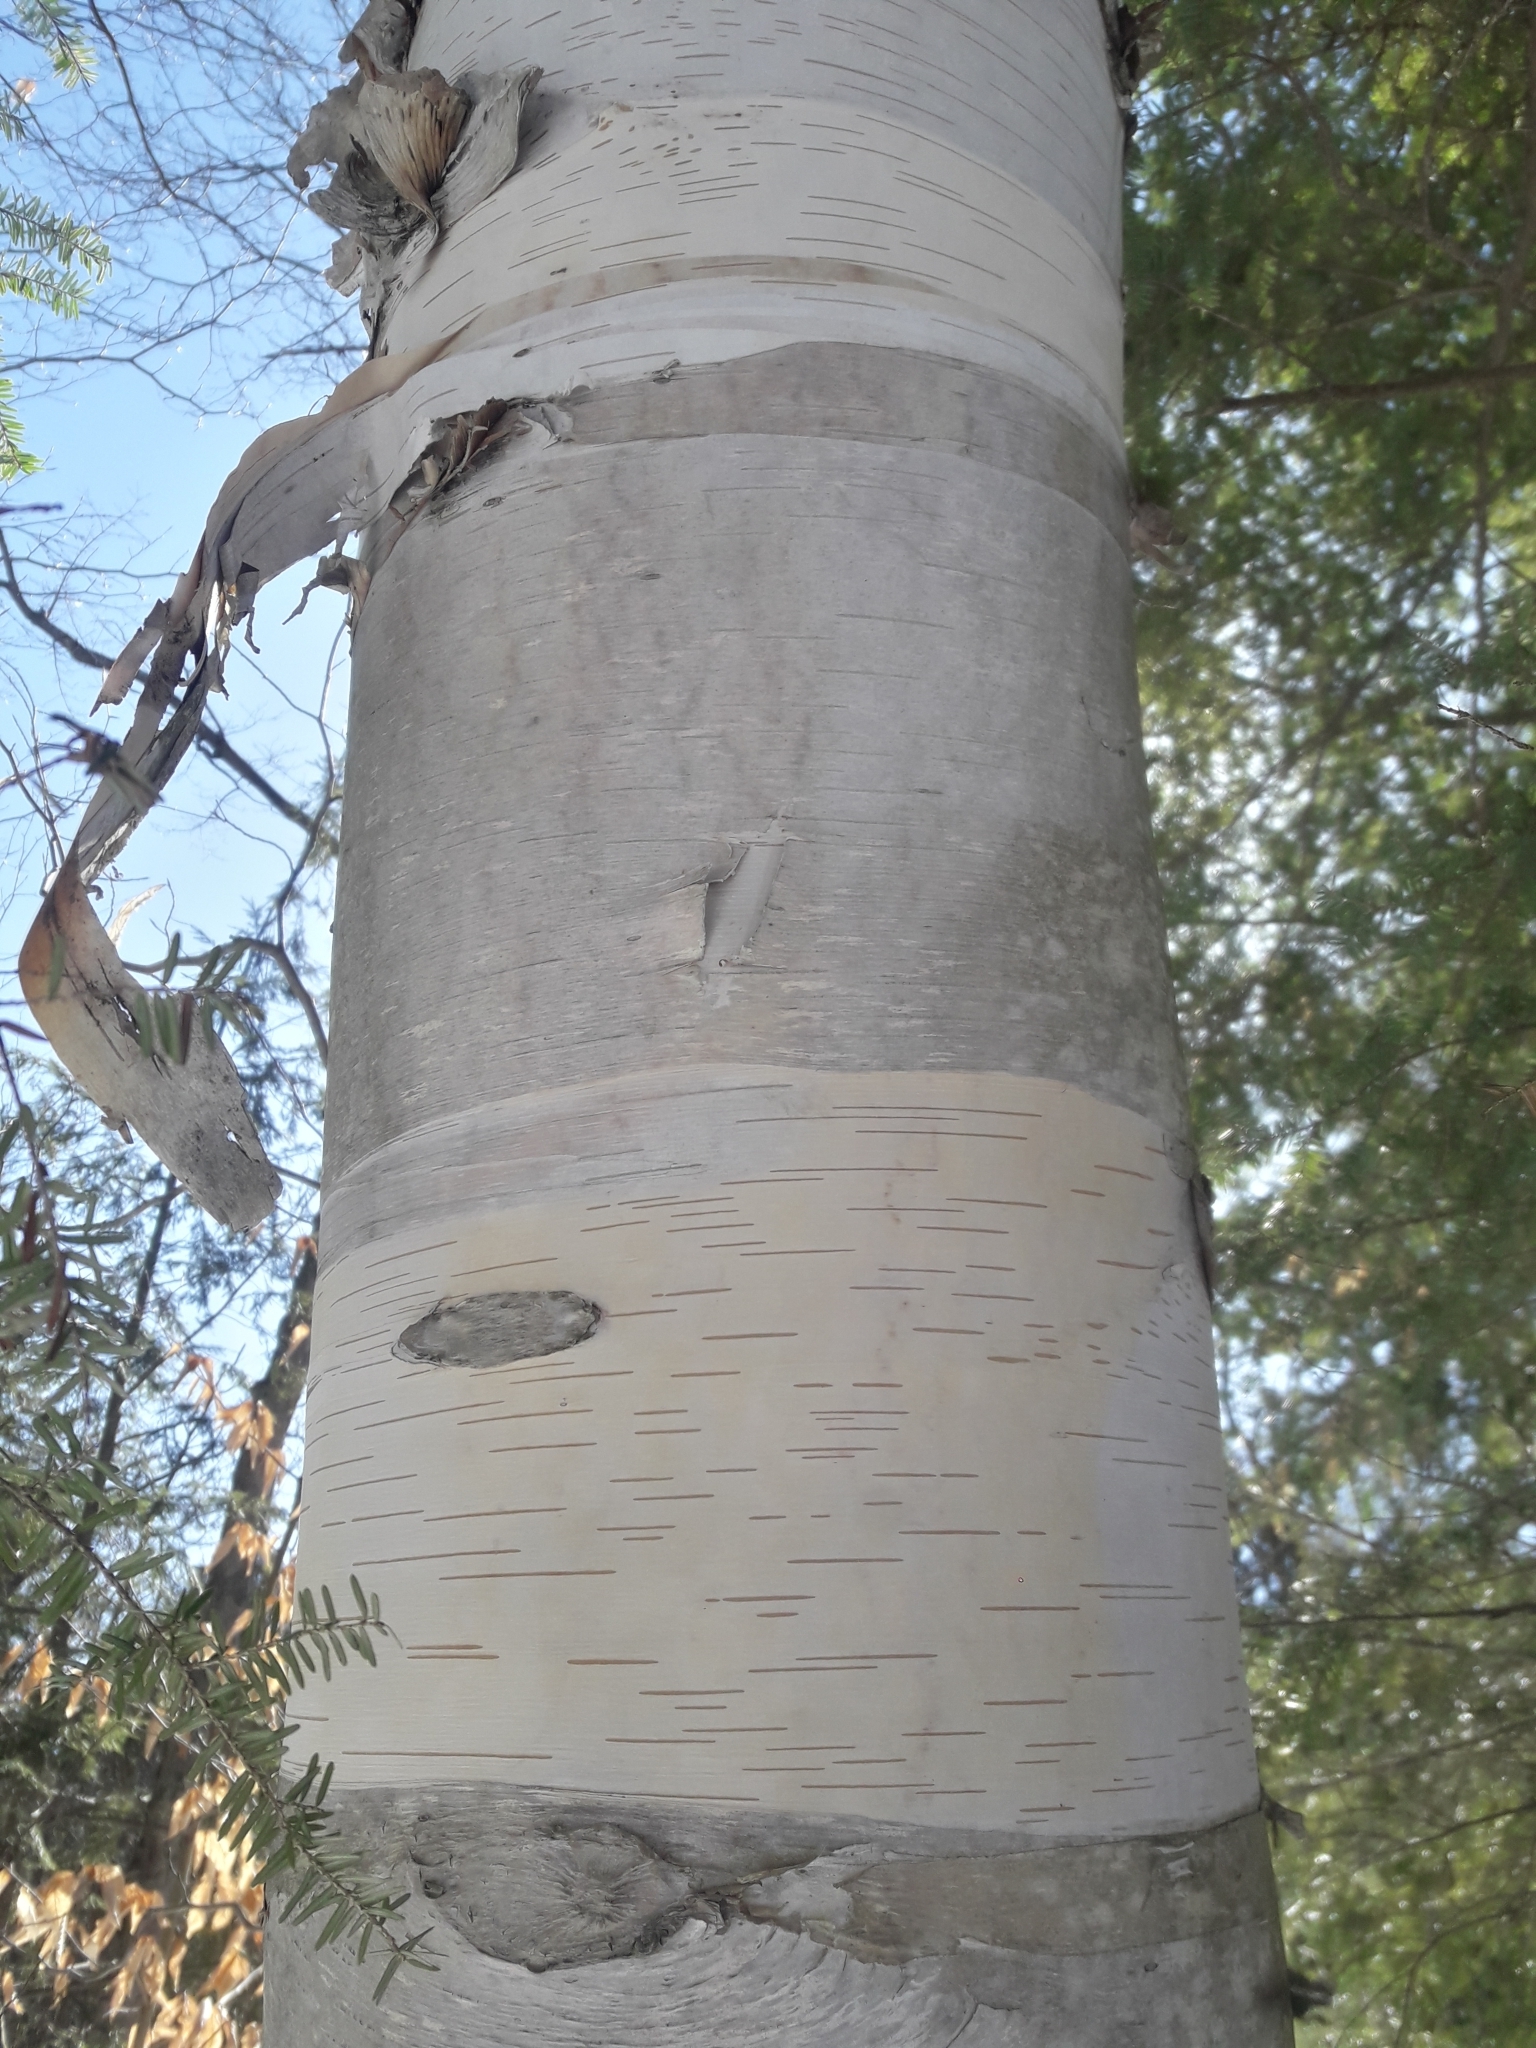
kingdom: Plantae
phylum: Tracheophyta
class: Magnoliopsida
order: Fagales
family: Betulaceae
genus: Betula
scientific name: Betula papyrifera
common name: Paper birch
